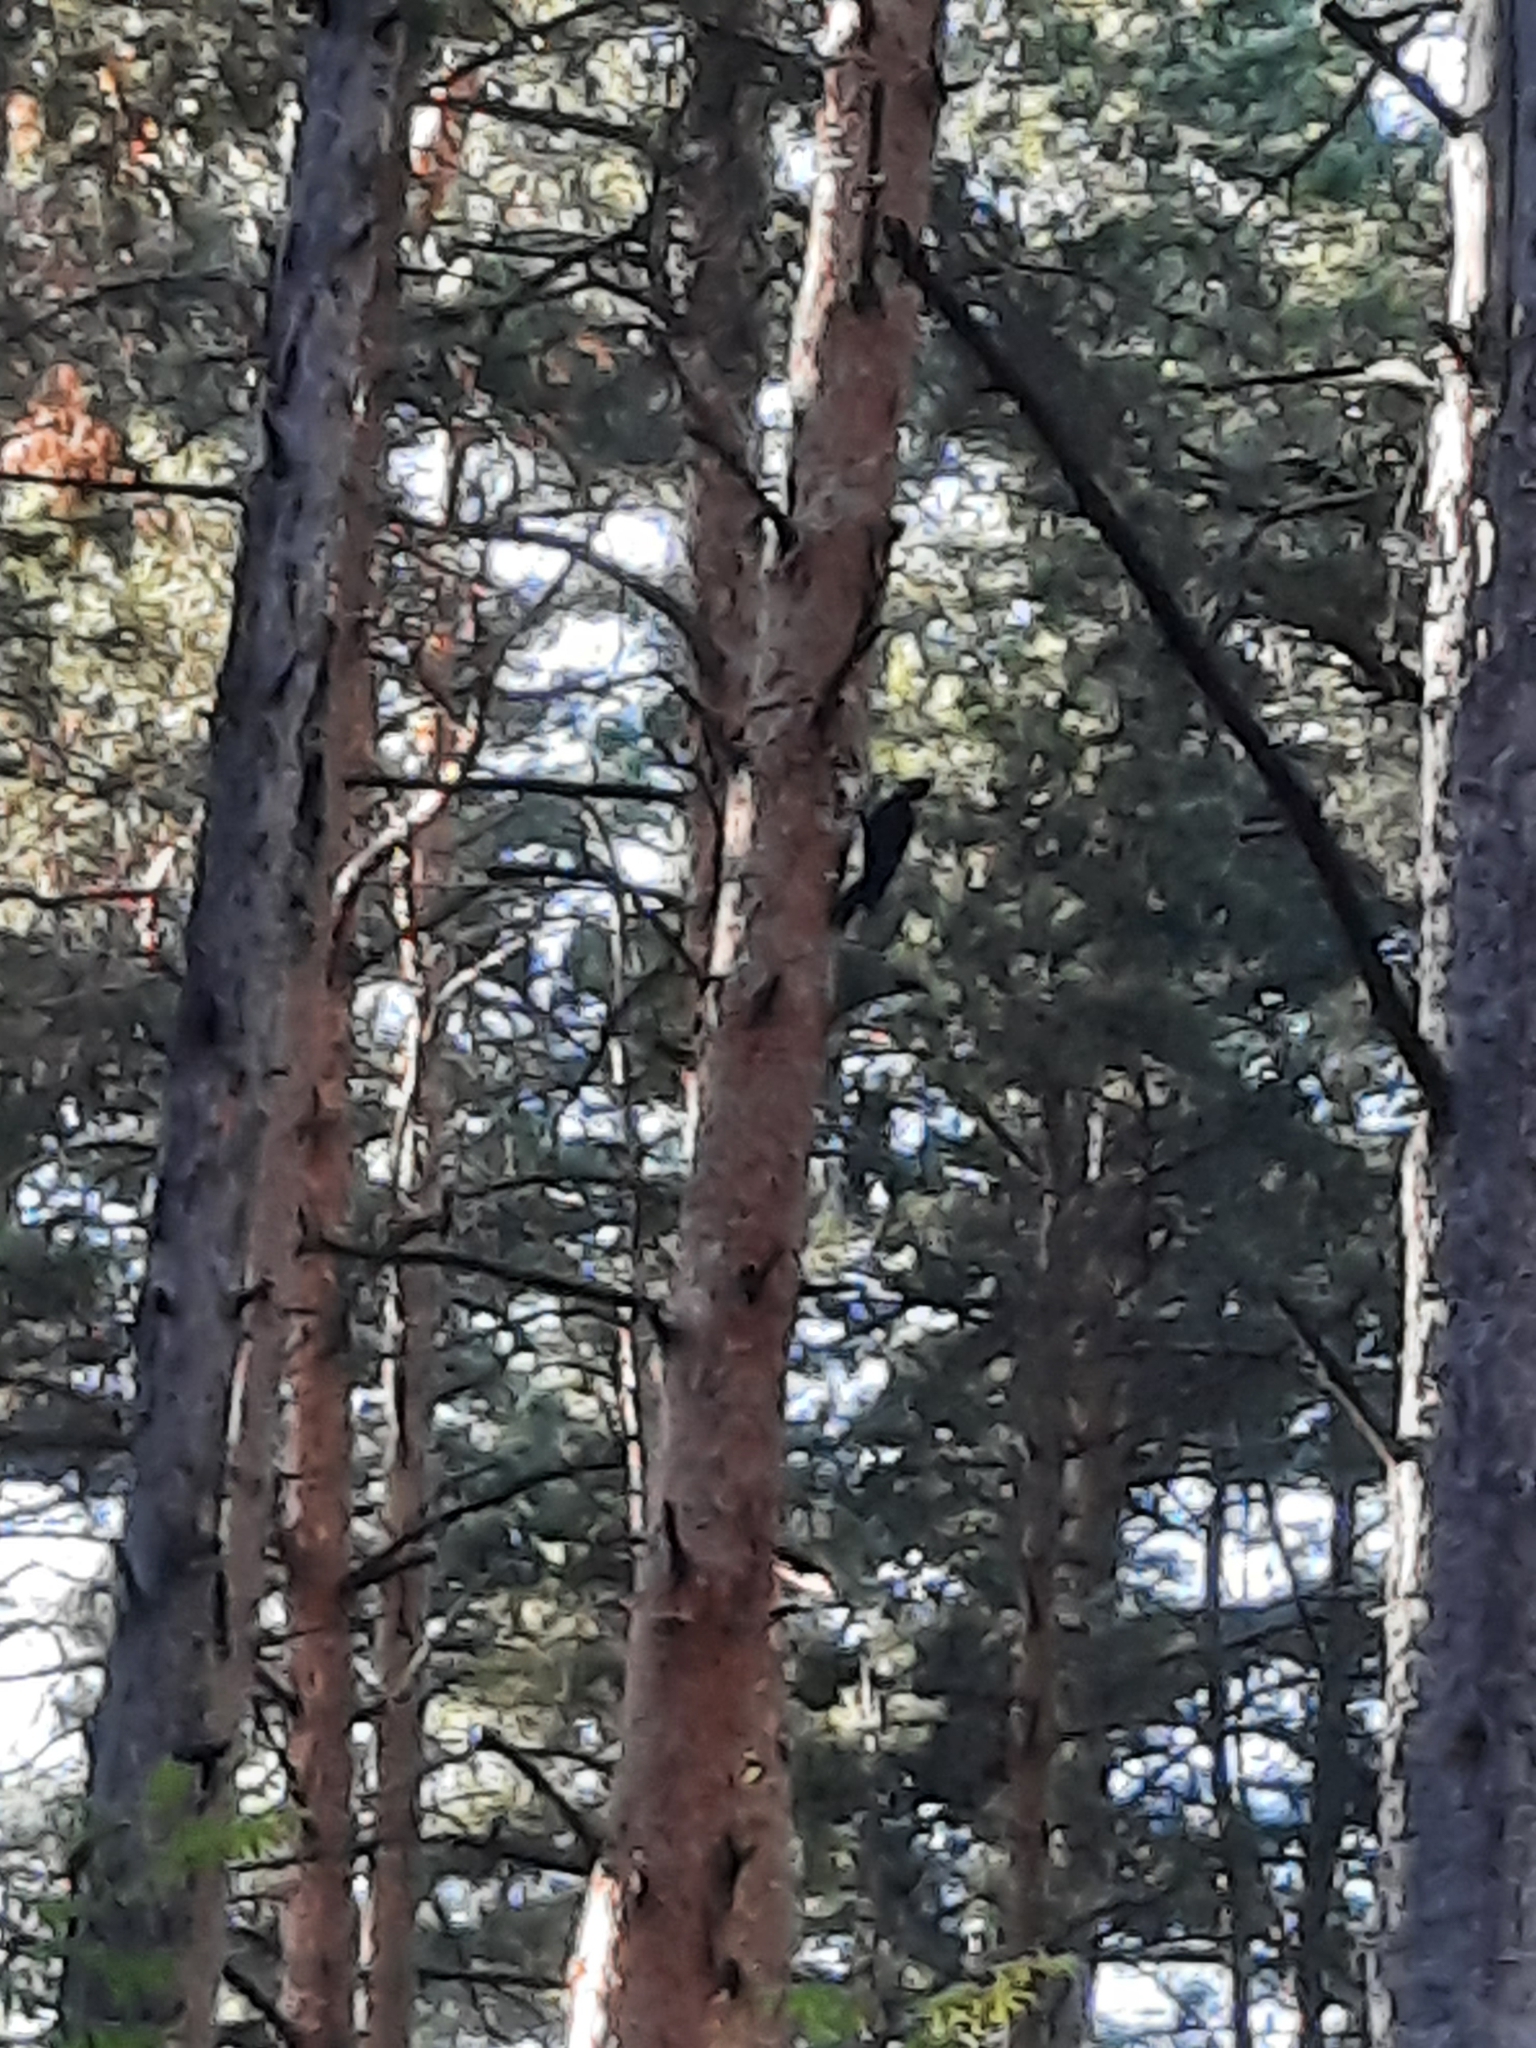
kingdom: Animalia
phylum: Chordata
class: Aves
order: Piciformes
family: Picidae
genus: Dryocopus
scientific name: Dryocopus martius
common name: Black woodpecker
